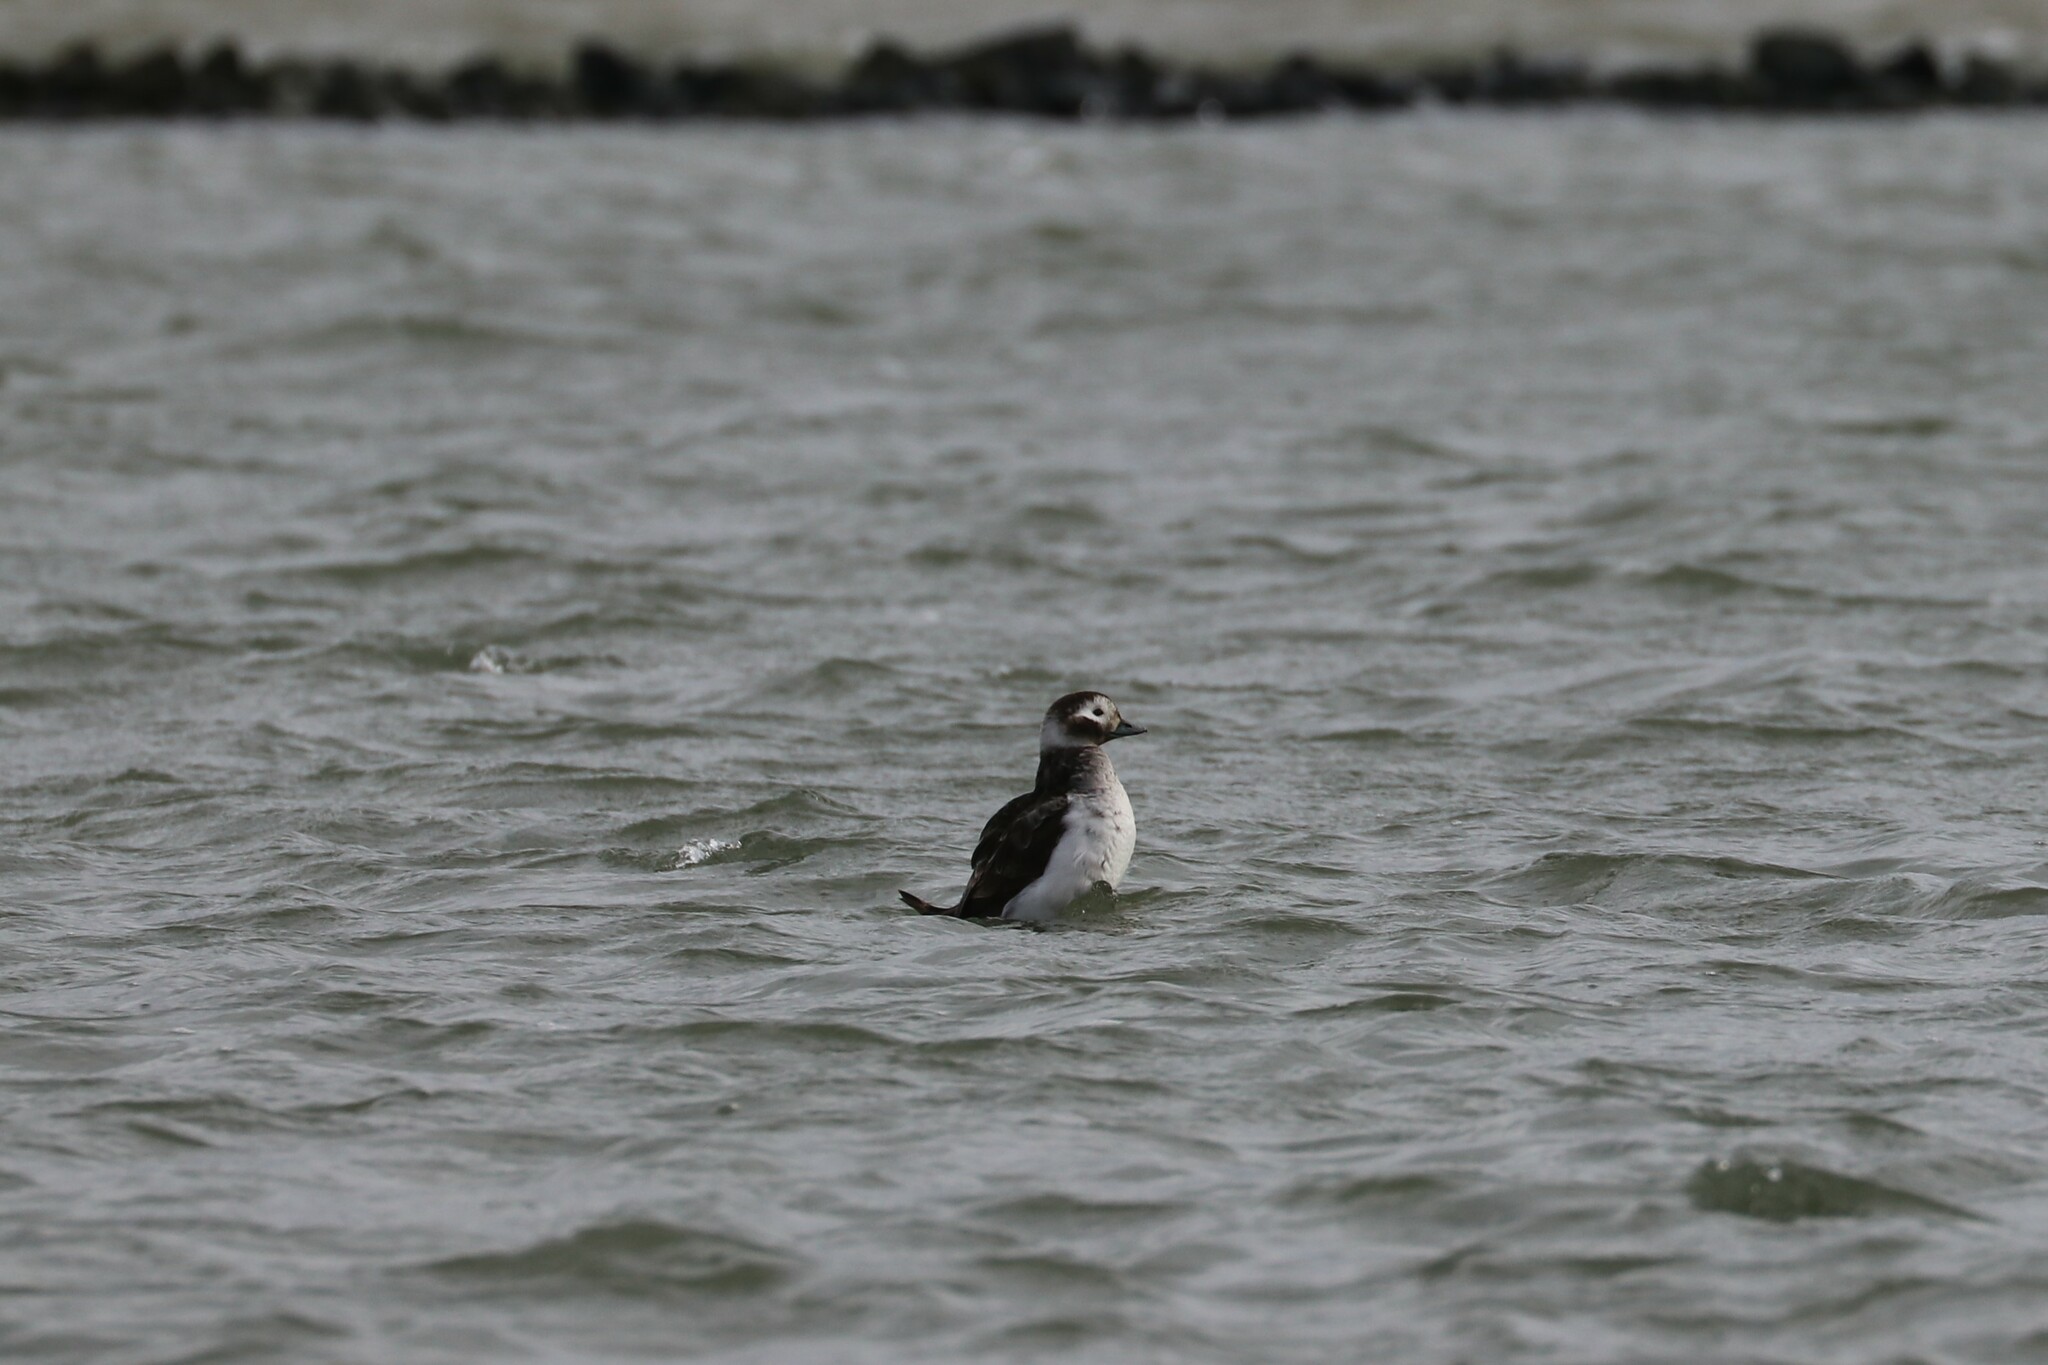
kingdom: Animalia
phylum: Chordata
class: Aves
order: Anseriformes
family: Anatidae
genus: Clangula
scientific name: Clangula hyemalis
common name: Long-tailed duck
